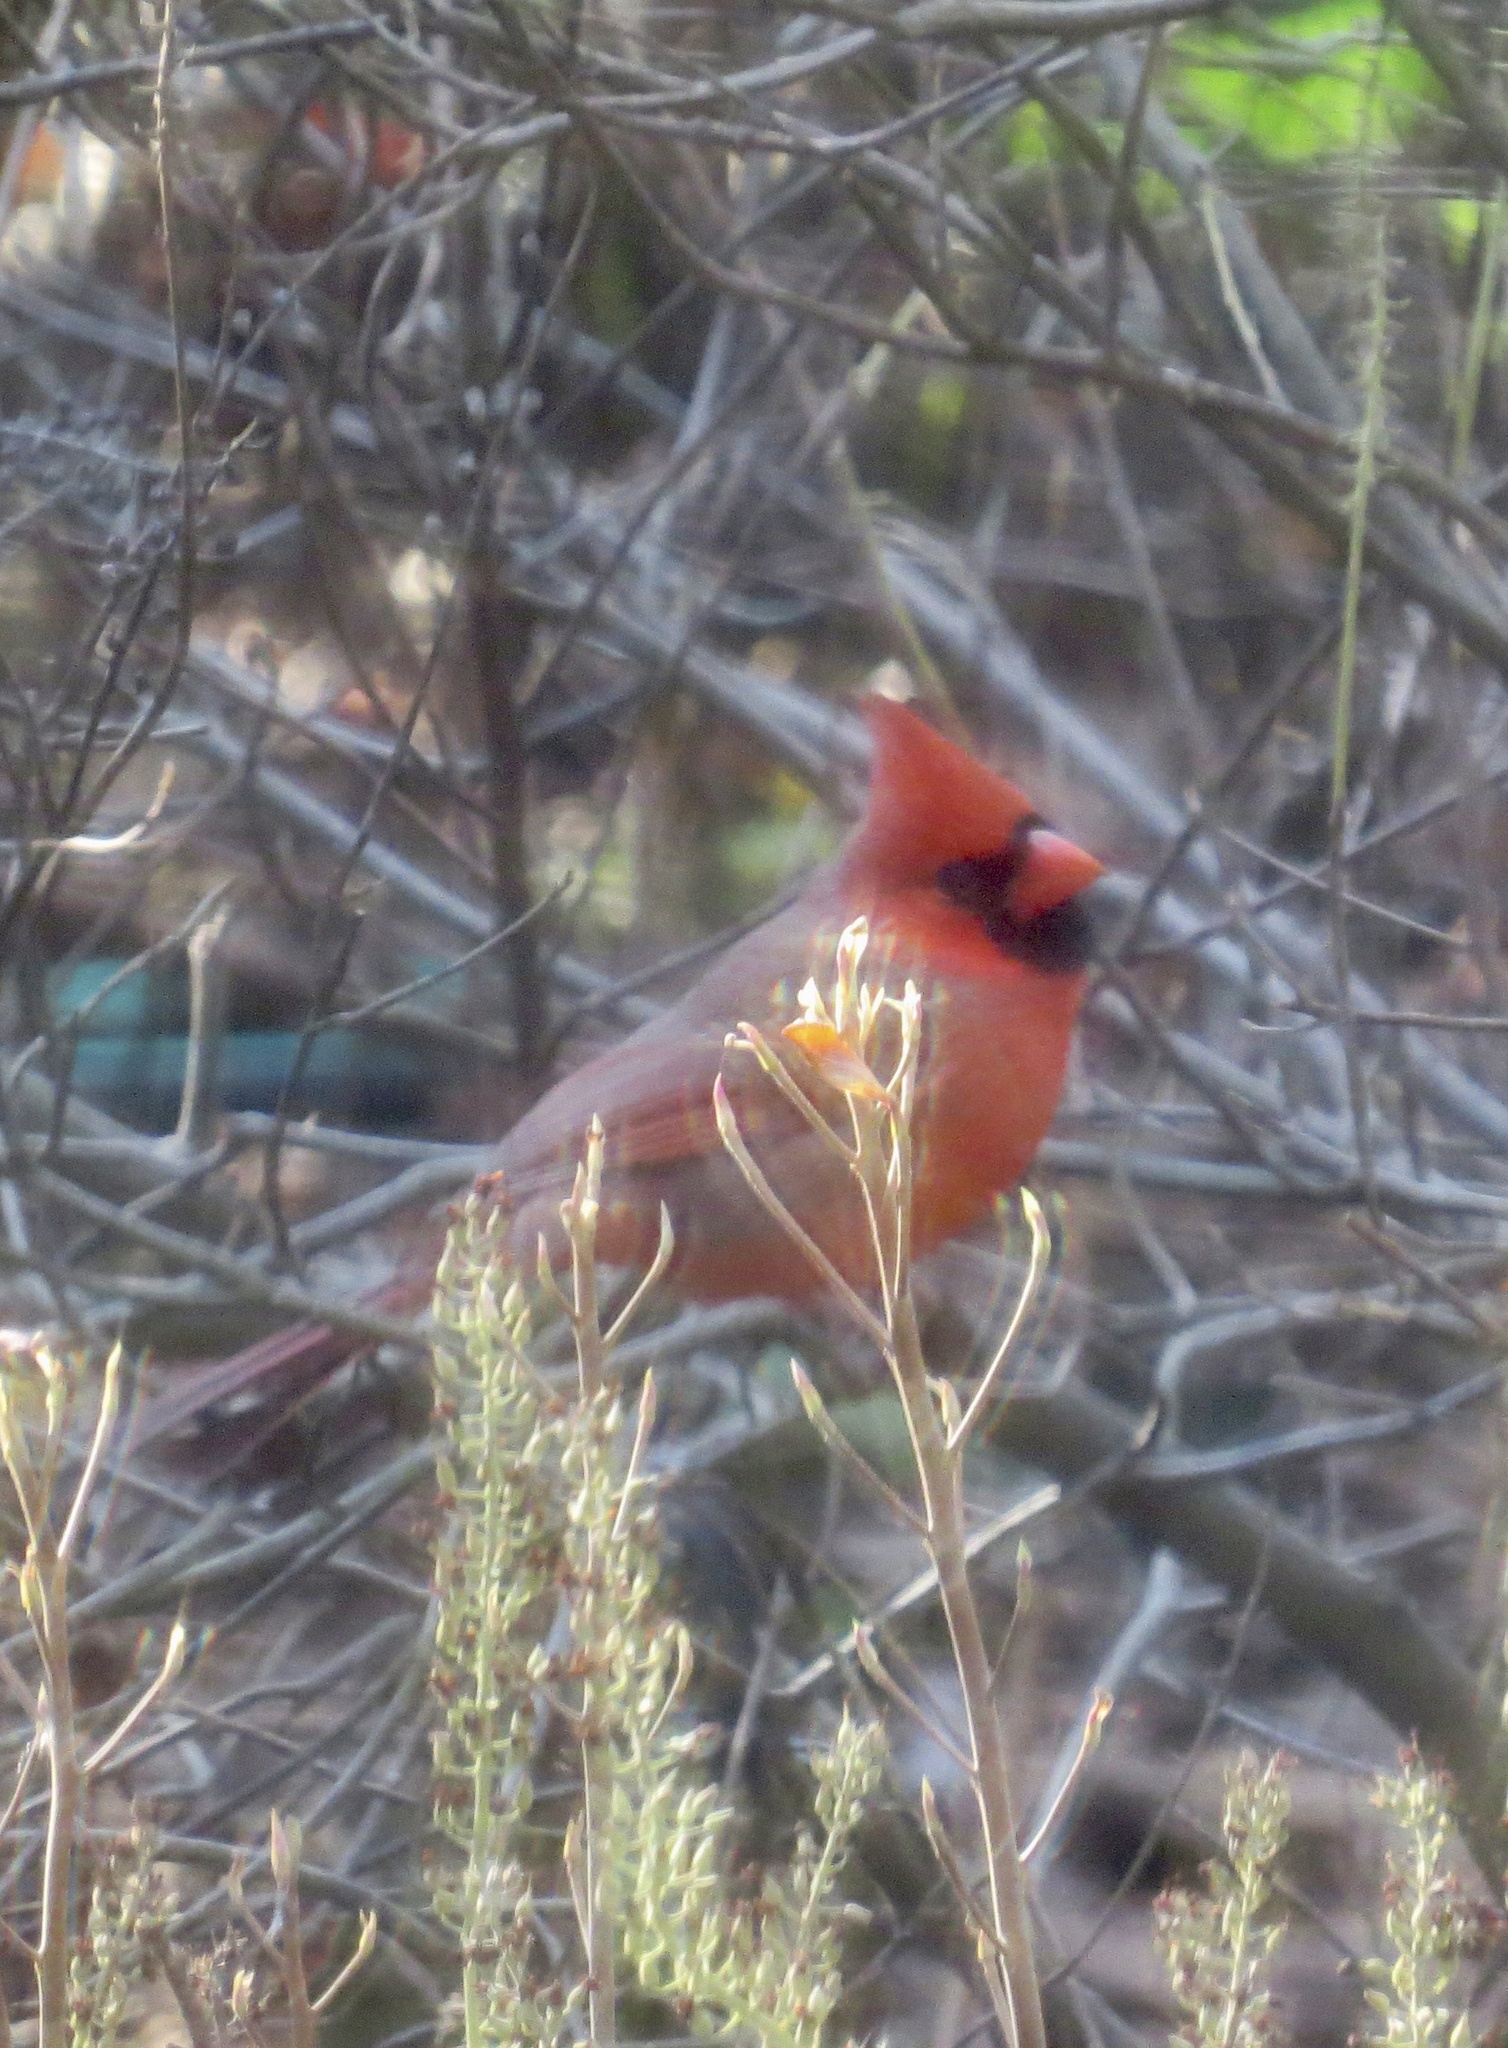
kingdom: Animalia
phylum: Chordata
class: Aves
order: Passeriformes
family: Cardinalidae
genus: Cardinalis
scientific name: Cardinalis cardinalis
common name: Northern cardinal
